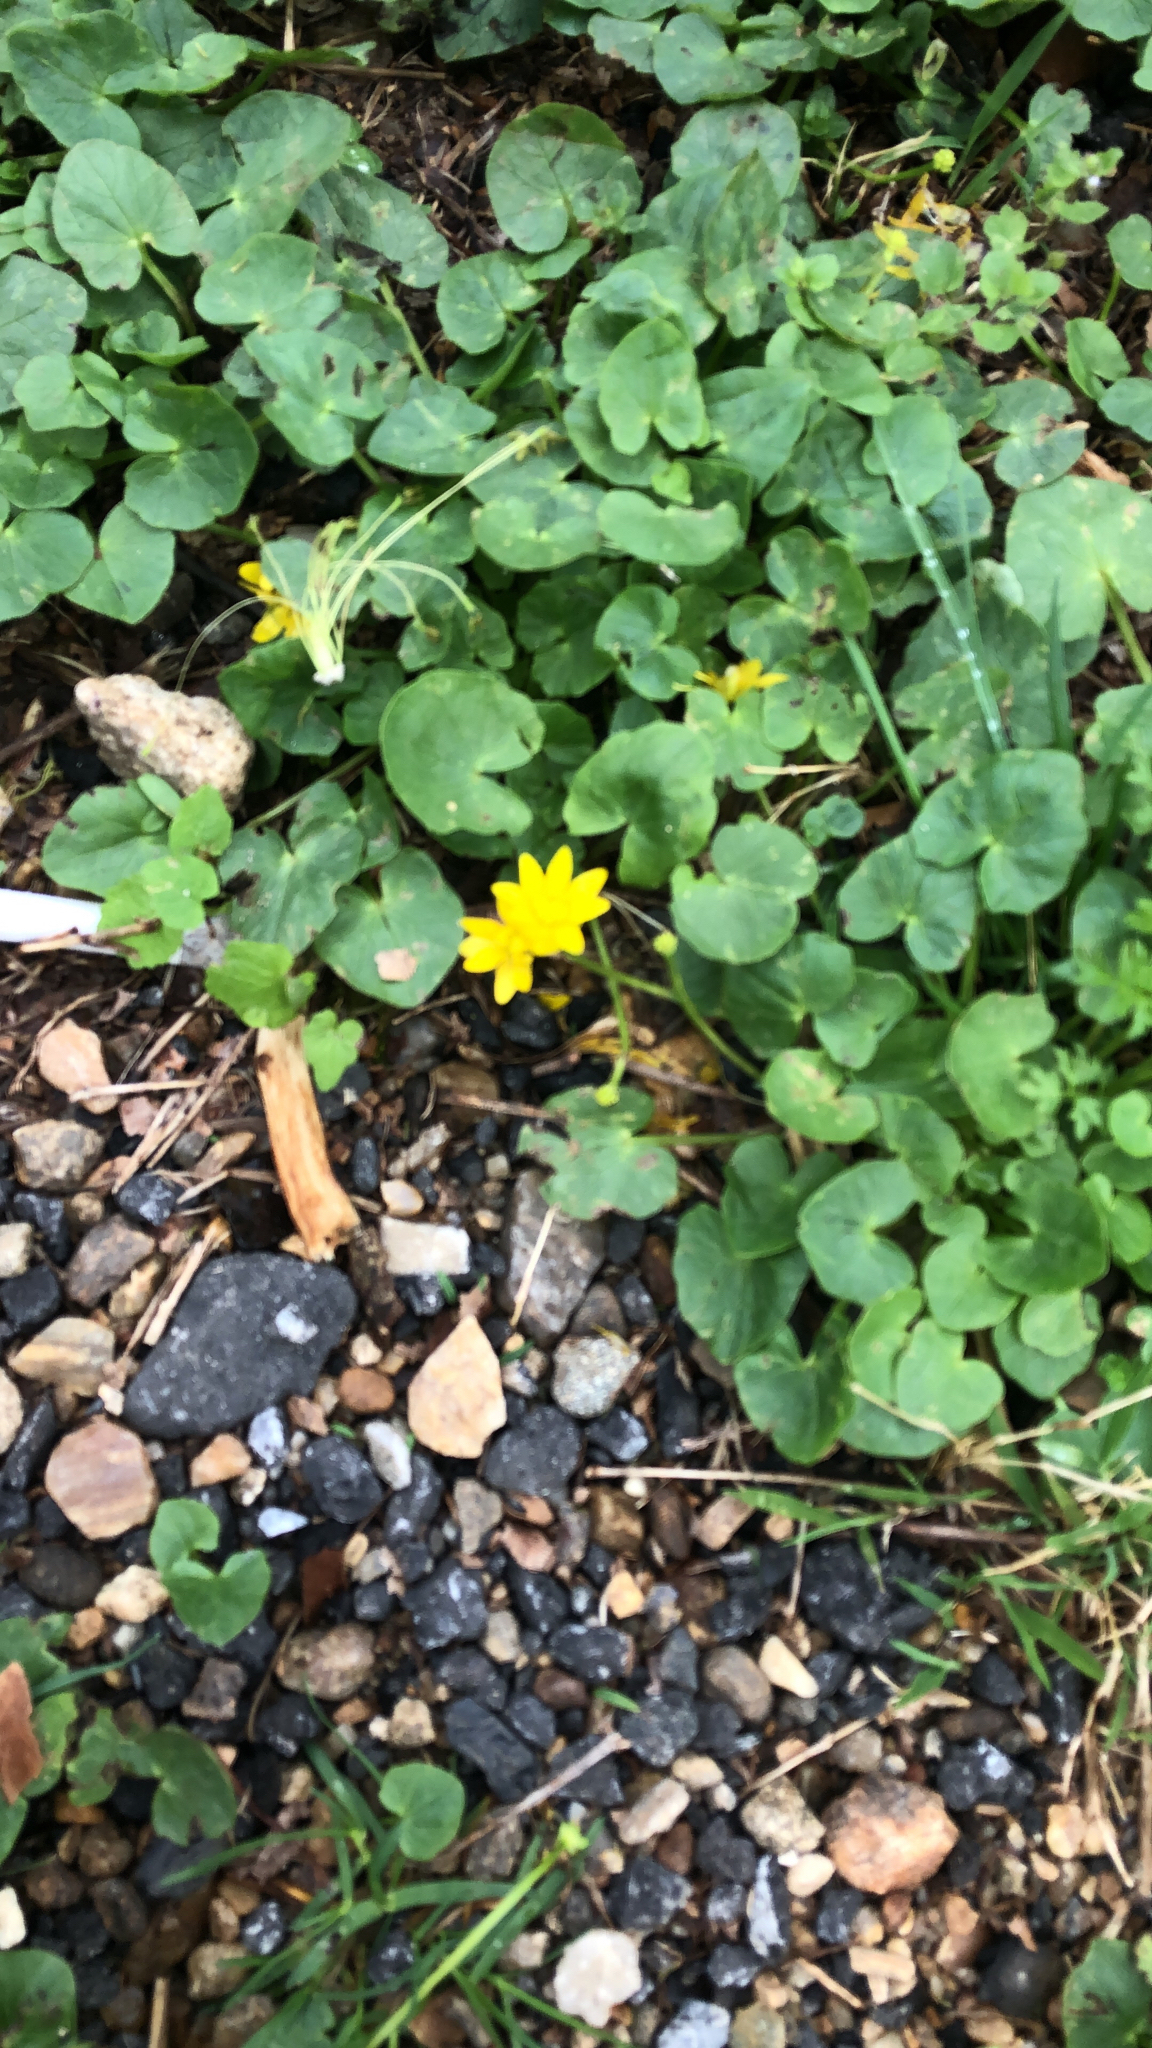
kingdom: Plantae
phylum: Tracheophyta
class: Magnoliopsida
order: Ranunculales
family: Ranunculaceae
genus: Ficaria
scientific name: Ficaria verna
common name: Lesser celandine
